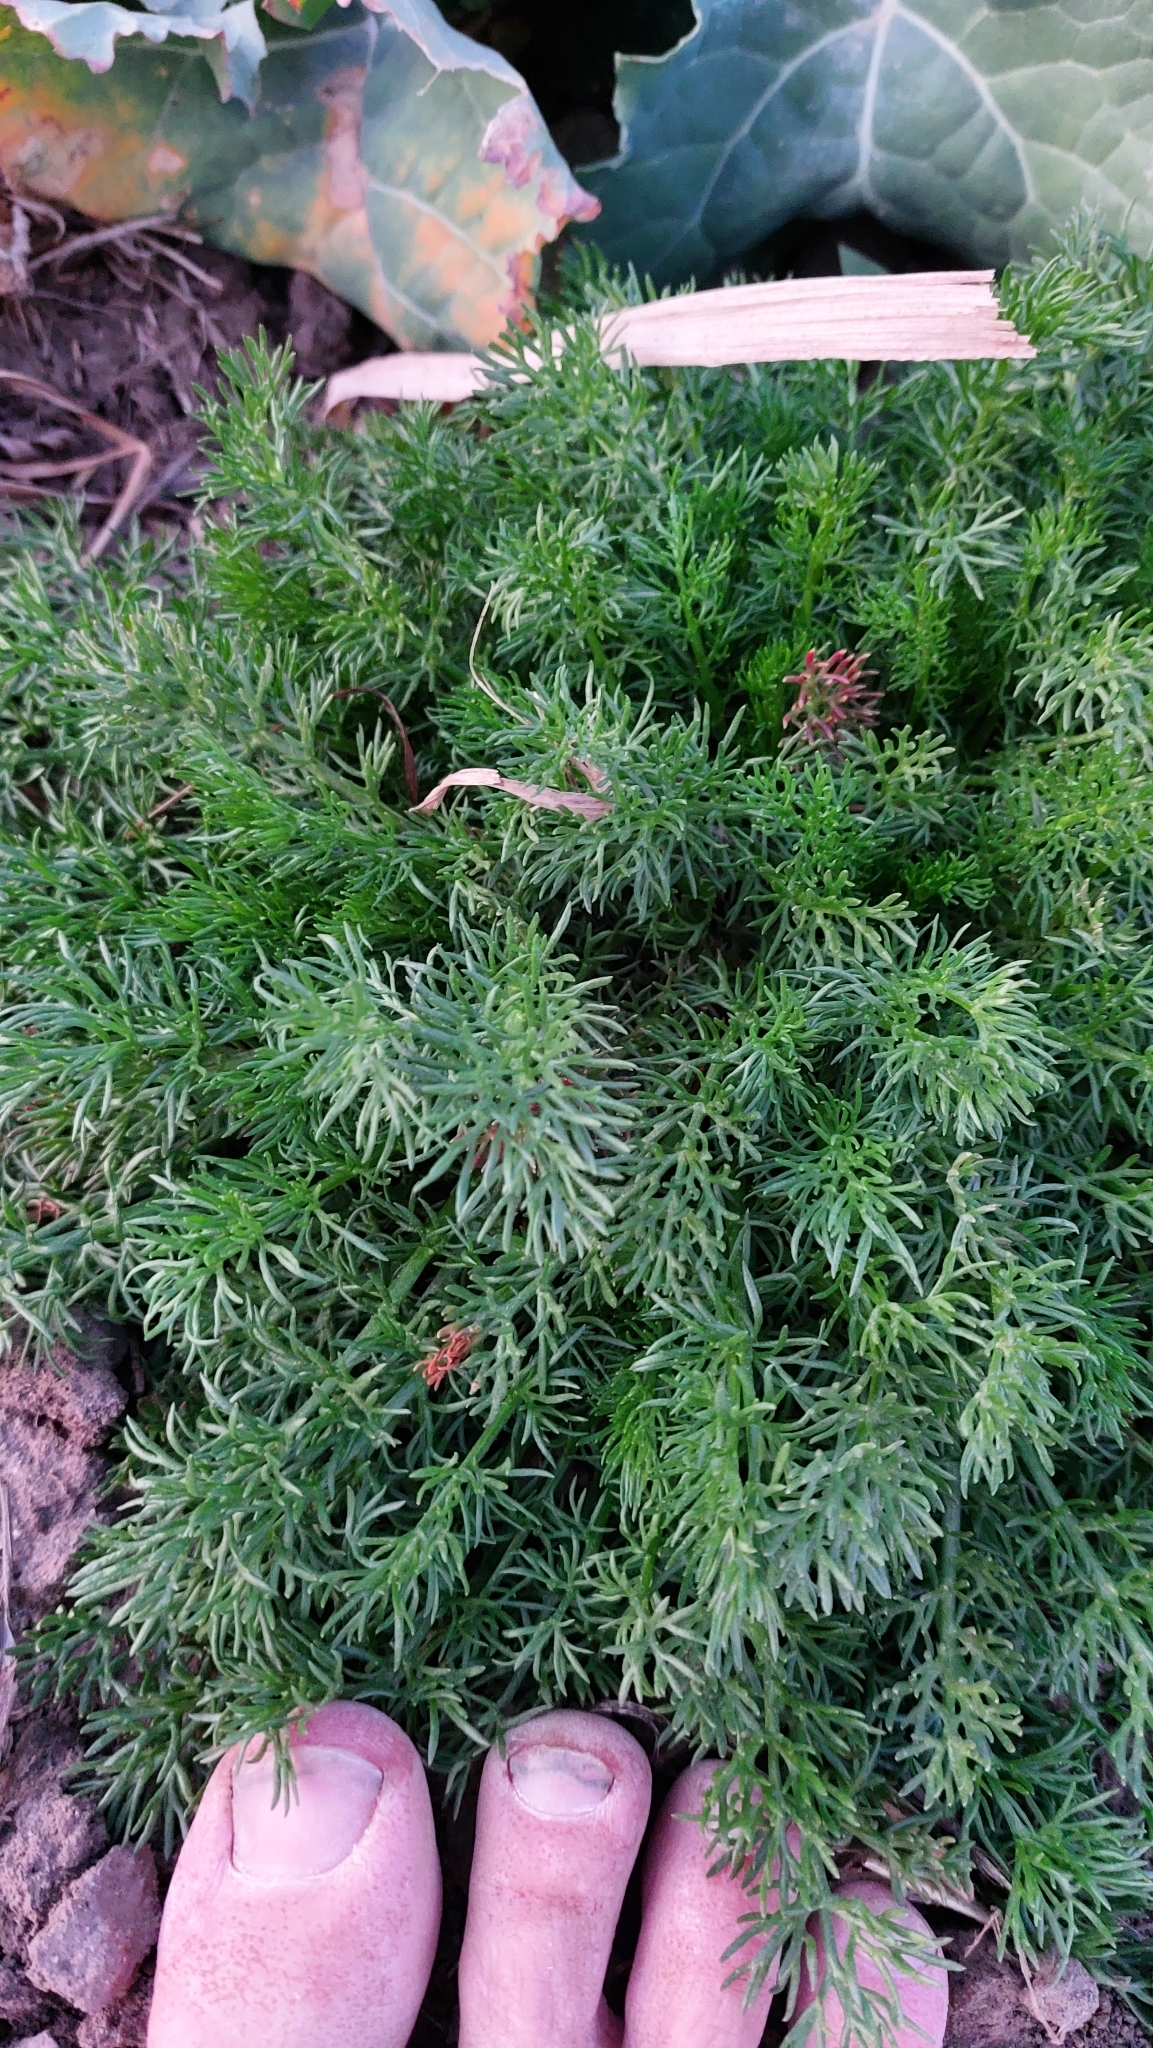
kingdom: Plantae
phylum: Tracheophyta
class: Magnoliopsida
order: Asterales
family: Asteraceae
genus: Tripleurospermum
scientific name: Tripleurospermum inodorum
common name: Scentless mayweed
